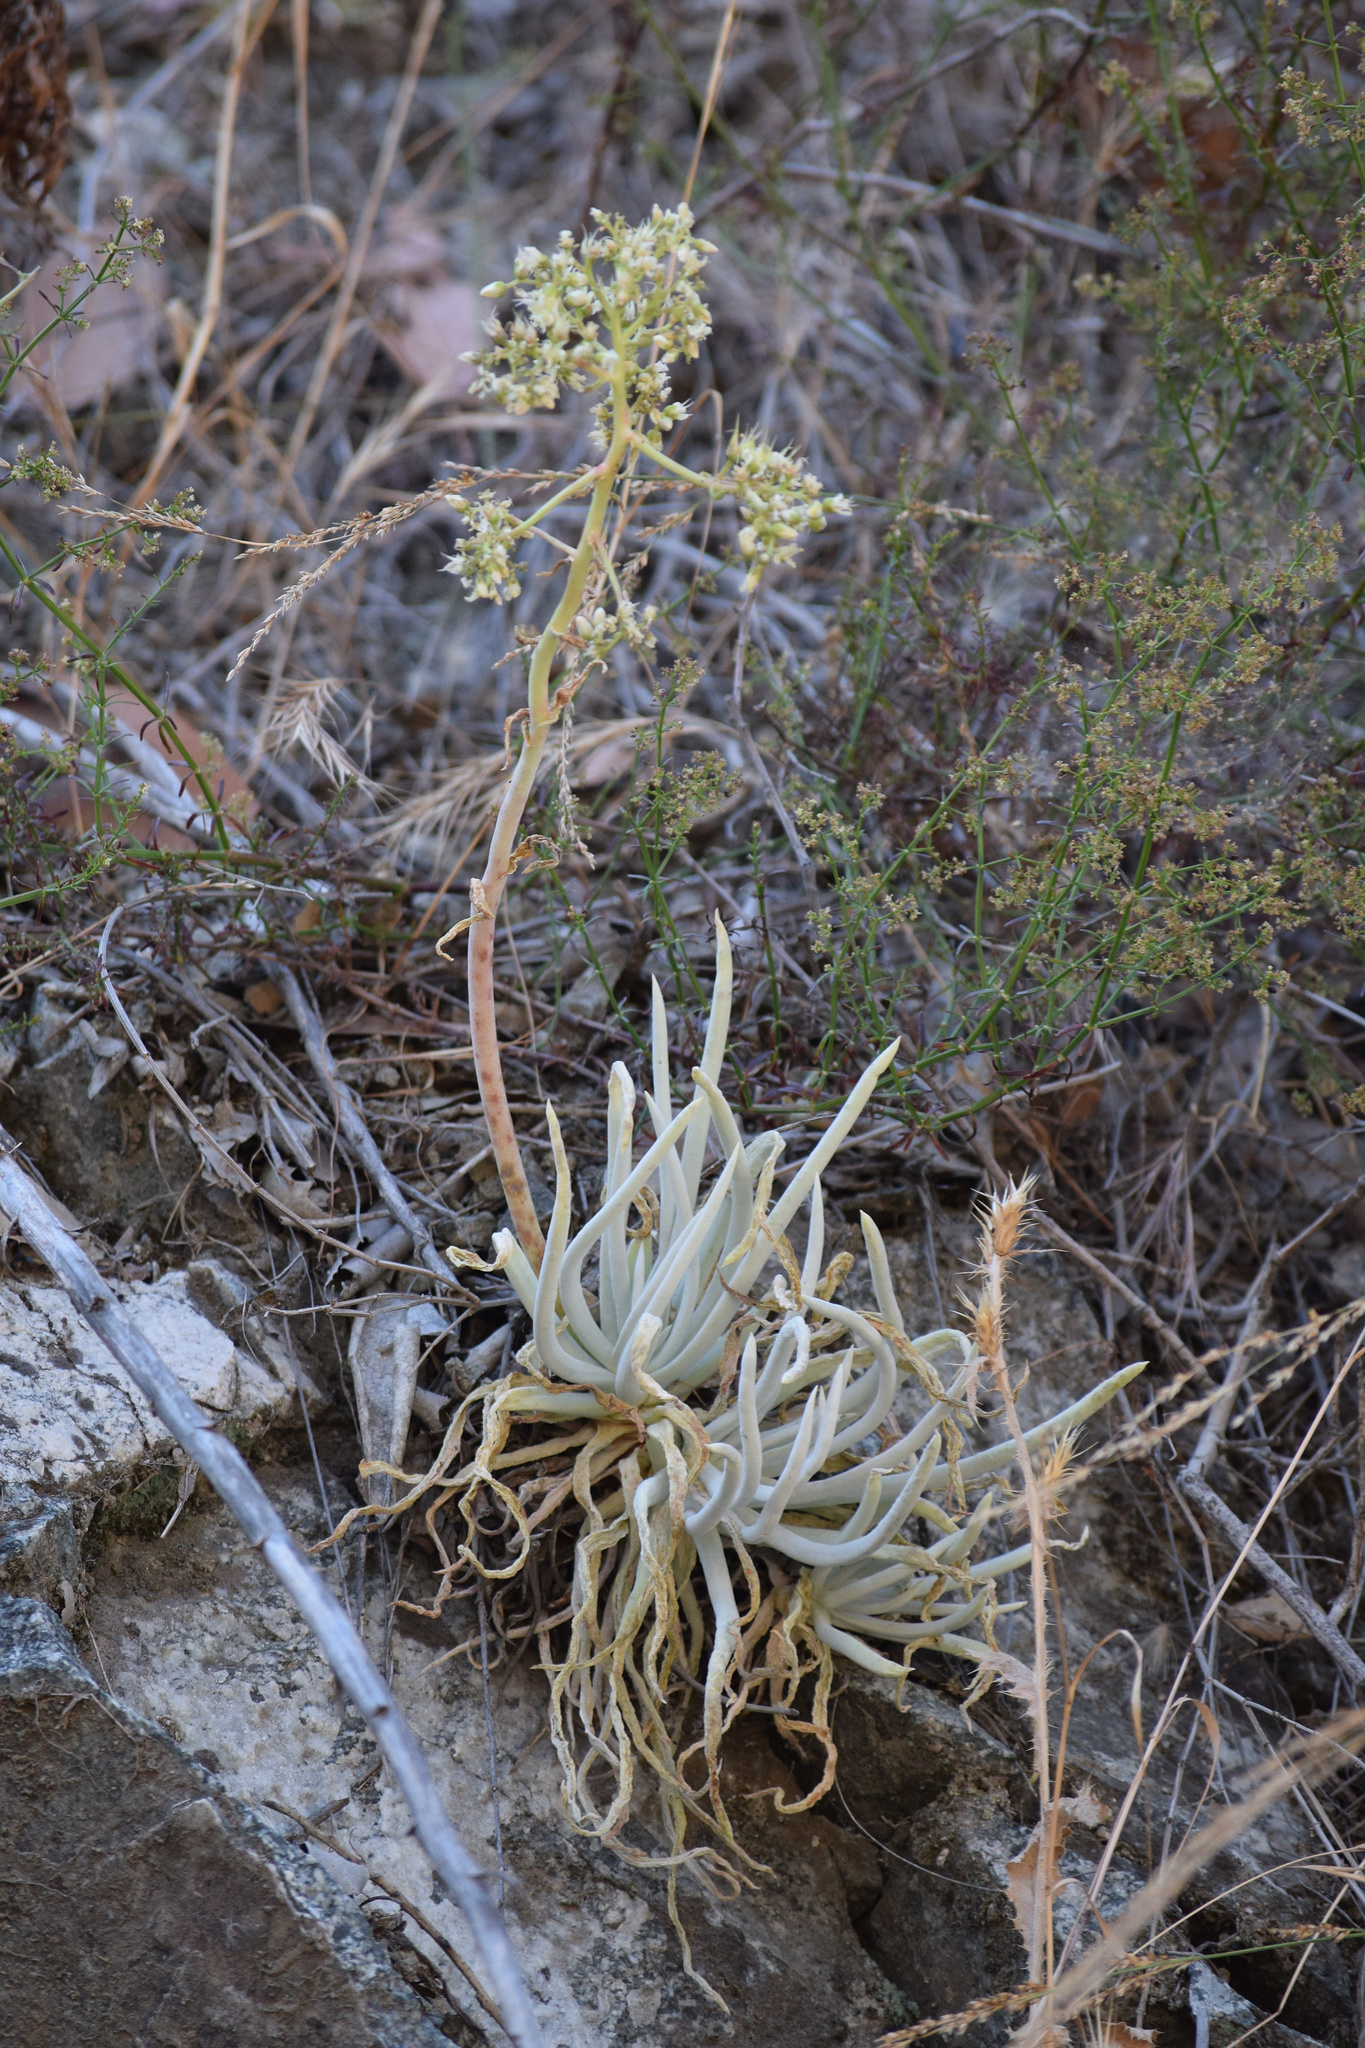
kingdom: Plantae
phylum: Tracheophyta
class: Magnoliopsida
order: Saxifragales
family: Crassulaceae
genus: Dudleya
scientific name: Dudleya densiflora
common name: San gabriel mountains dudleya
